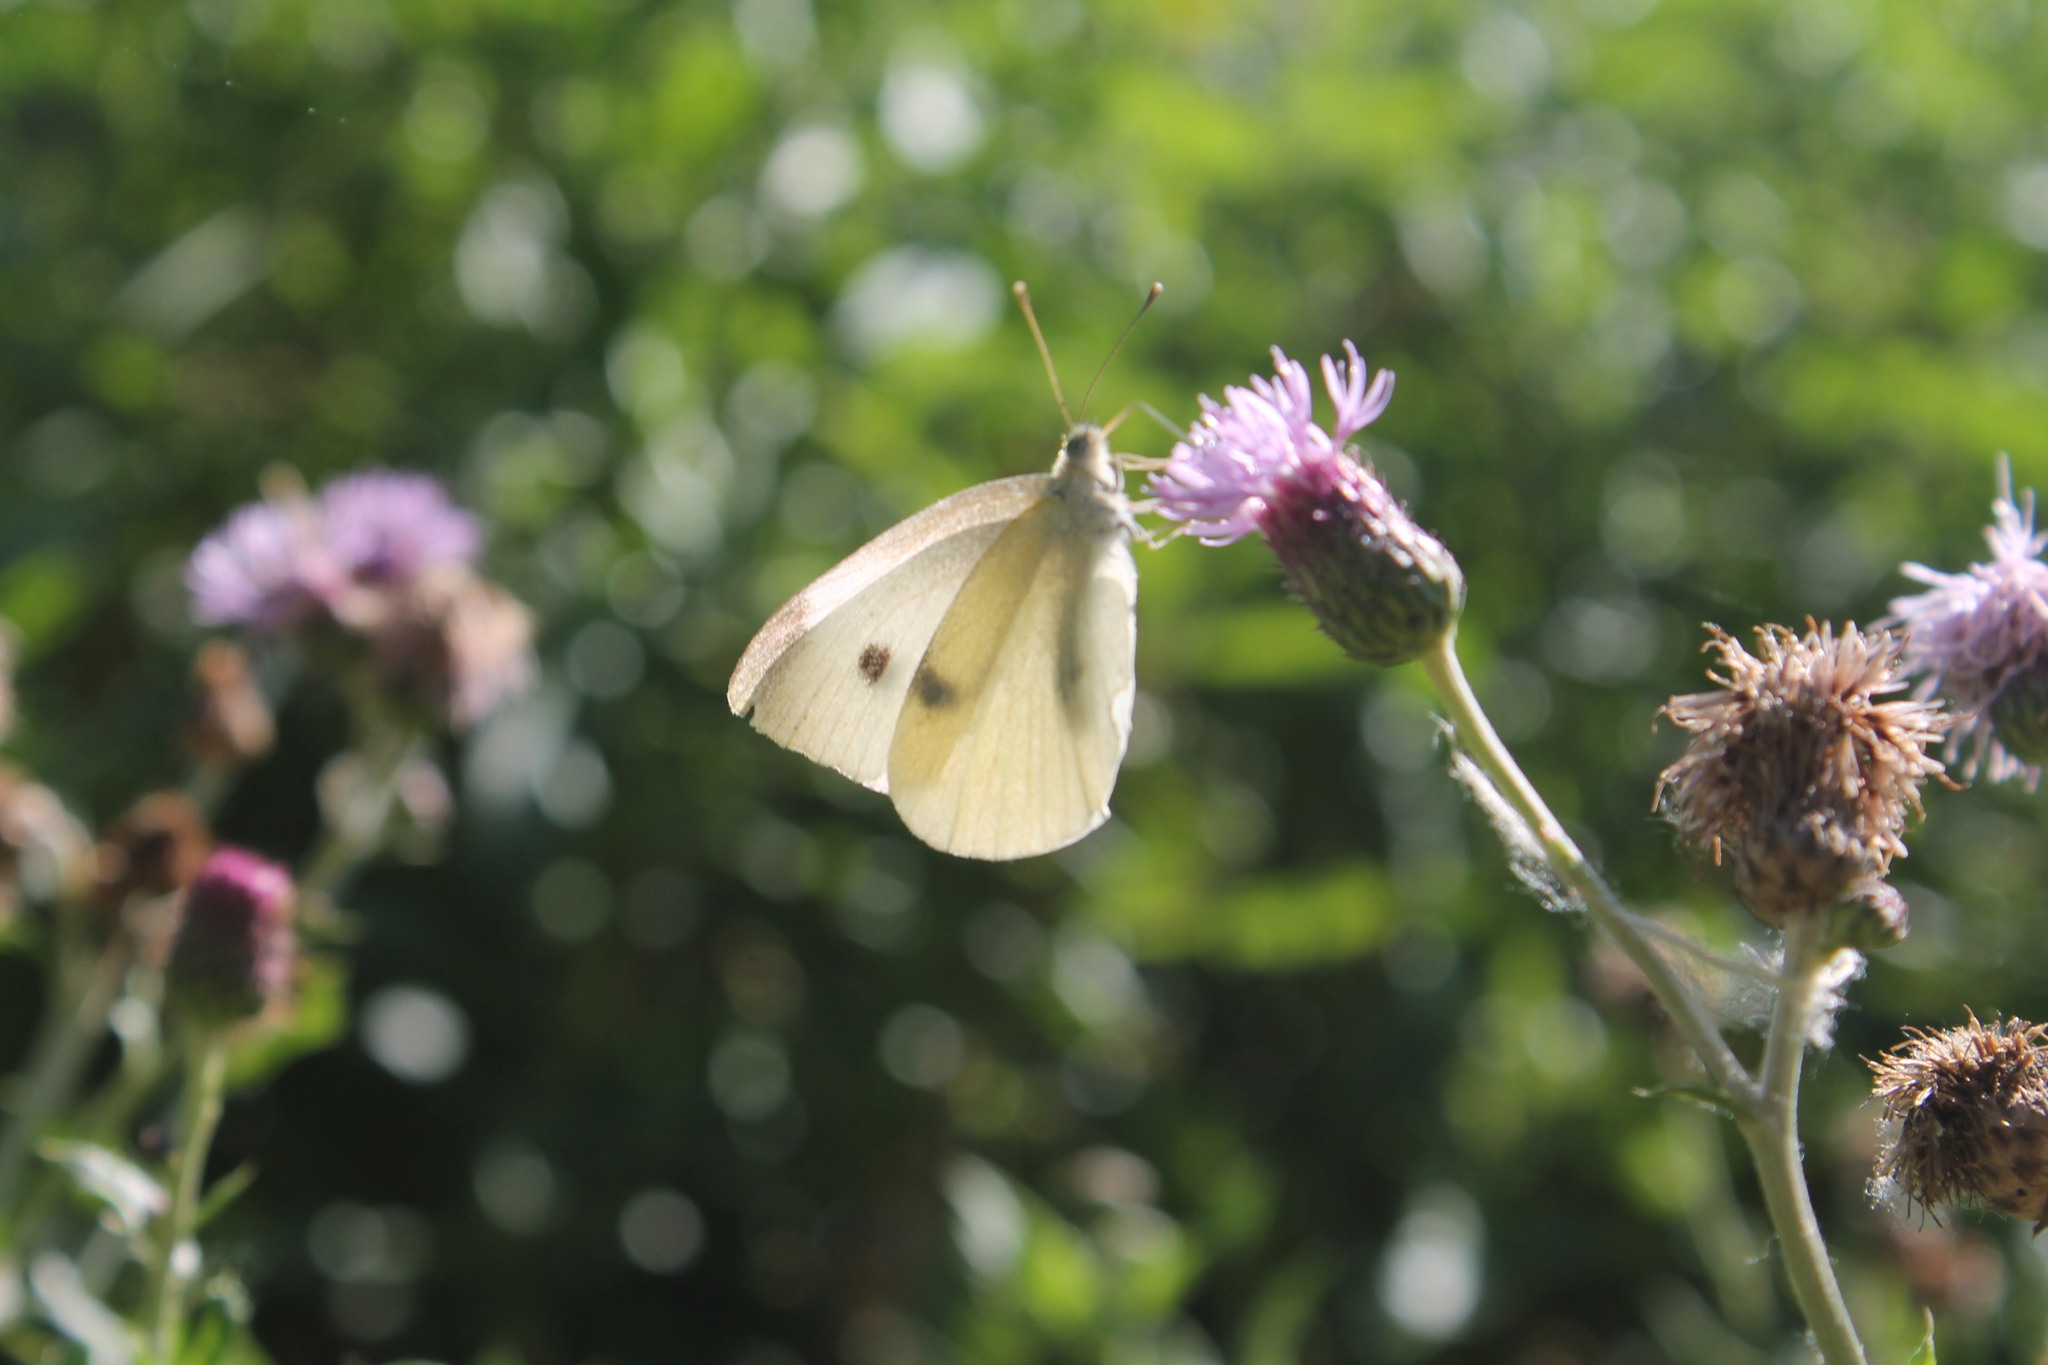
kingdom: Animalia
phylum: Arthropoda
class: Insecta
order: Lepidoptera
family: Pieridae
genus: Pieris
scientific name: Pieris rapae
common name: Small white
